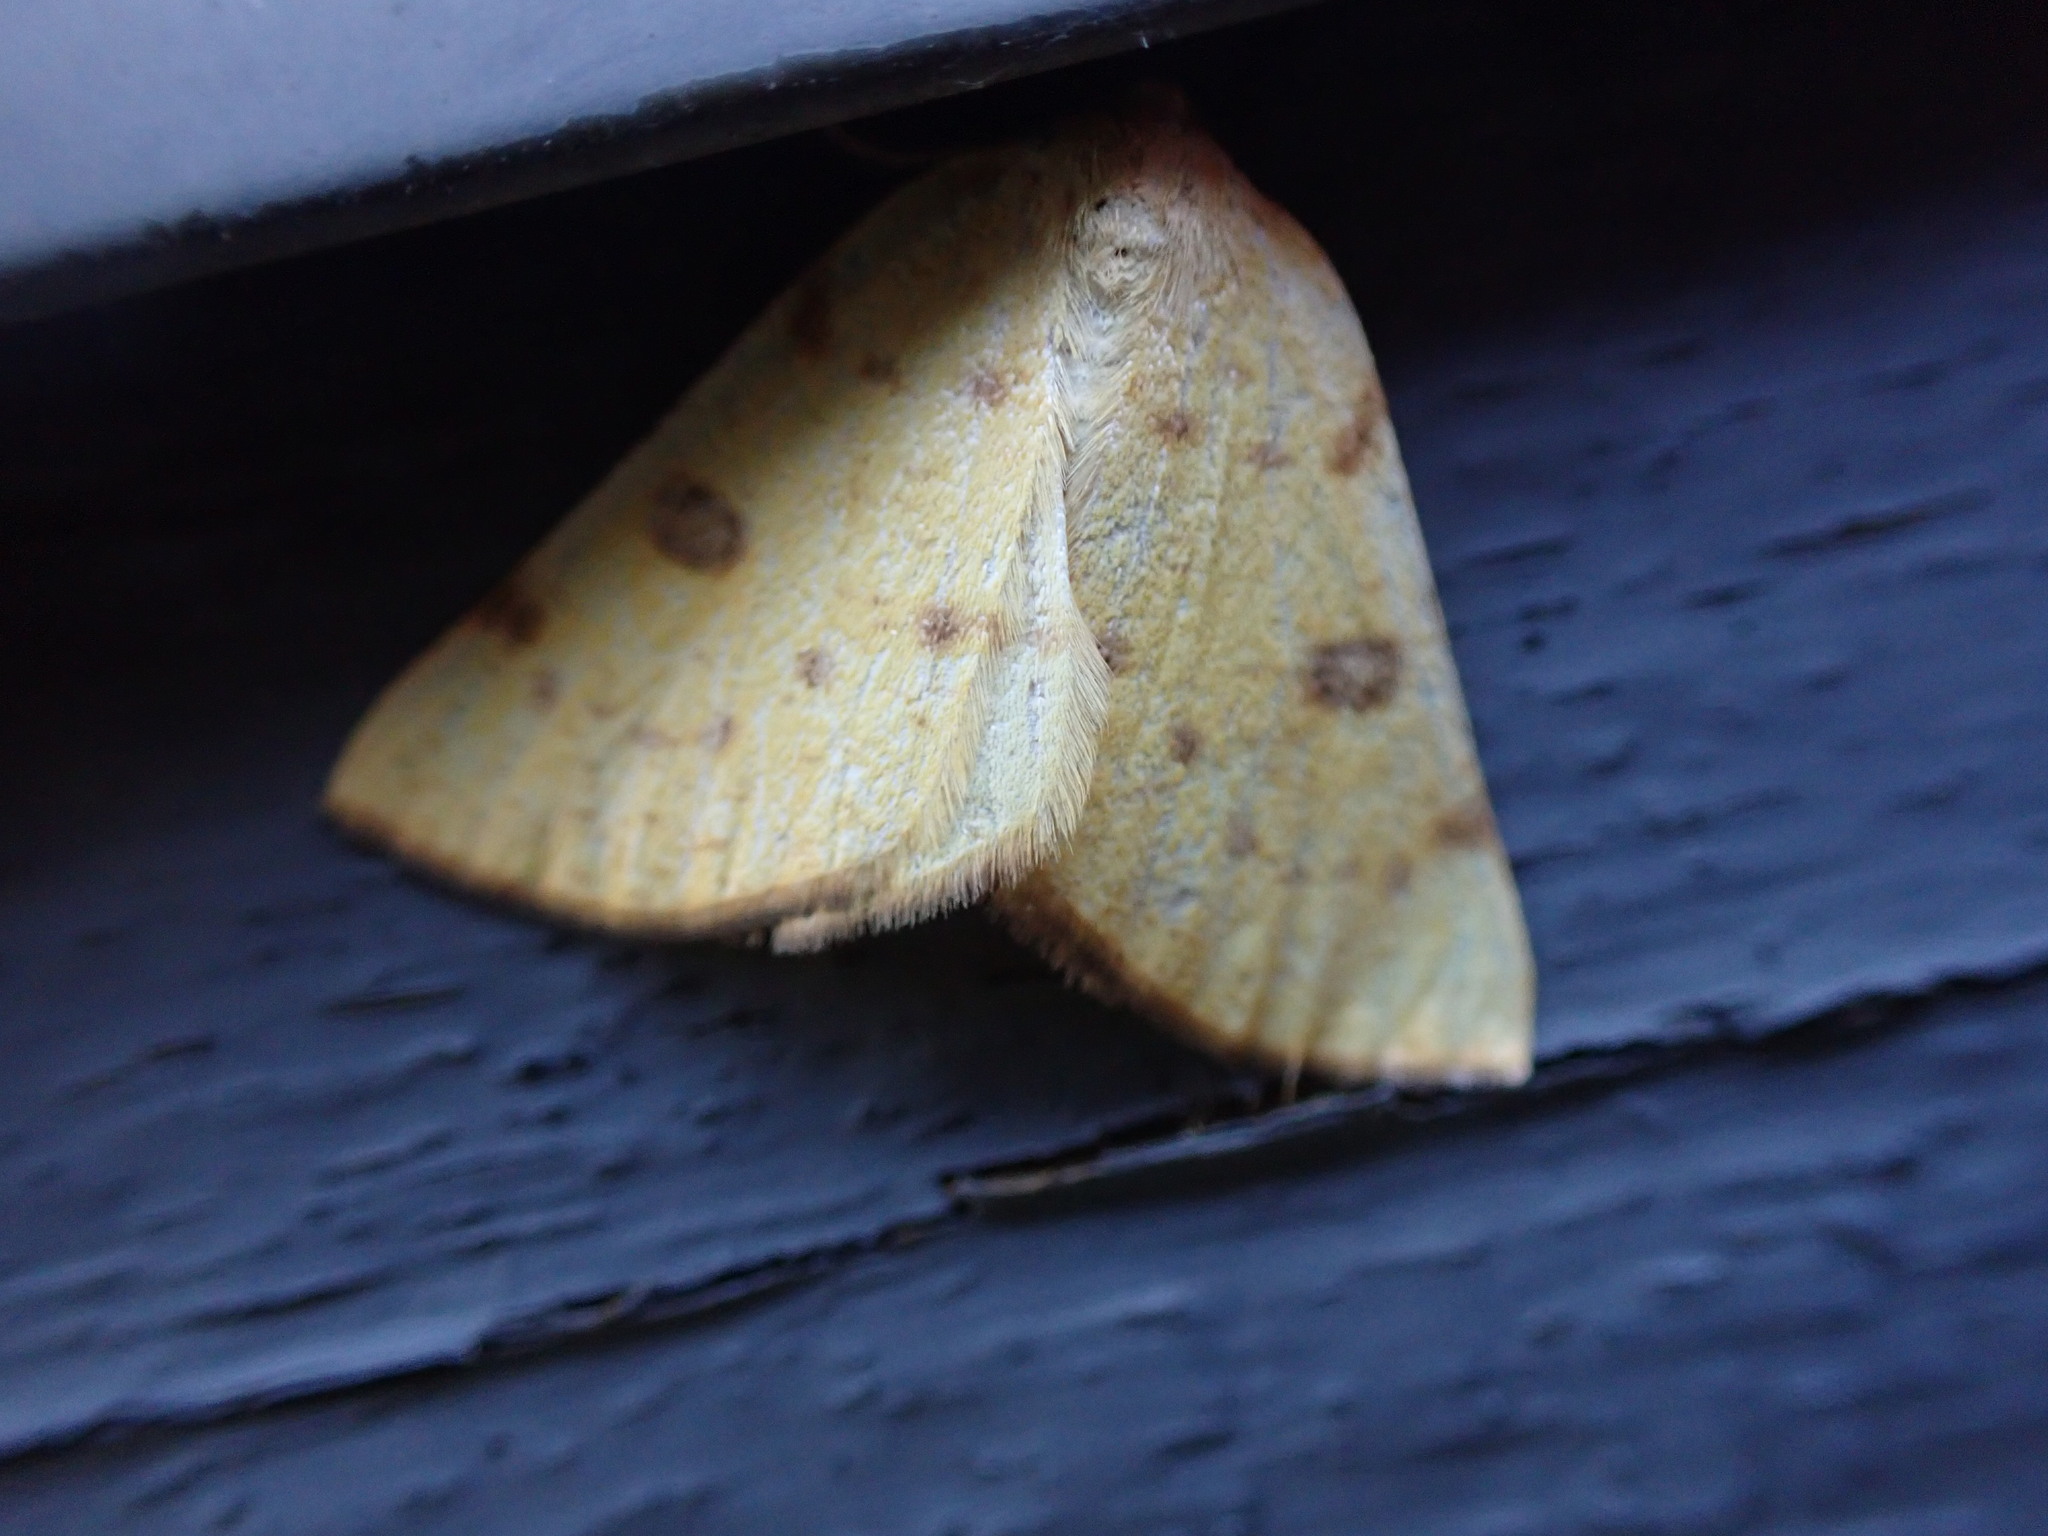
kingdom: Animalia
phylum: Arthropoda
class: Insecta
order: Lepidoptera
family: Geometridae
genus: Hesperumia
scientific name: Hesperumia sulphuraria
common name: Sulphur moth
